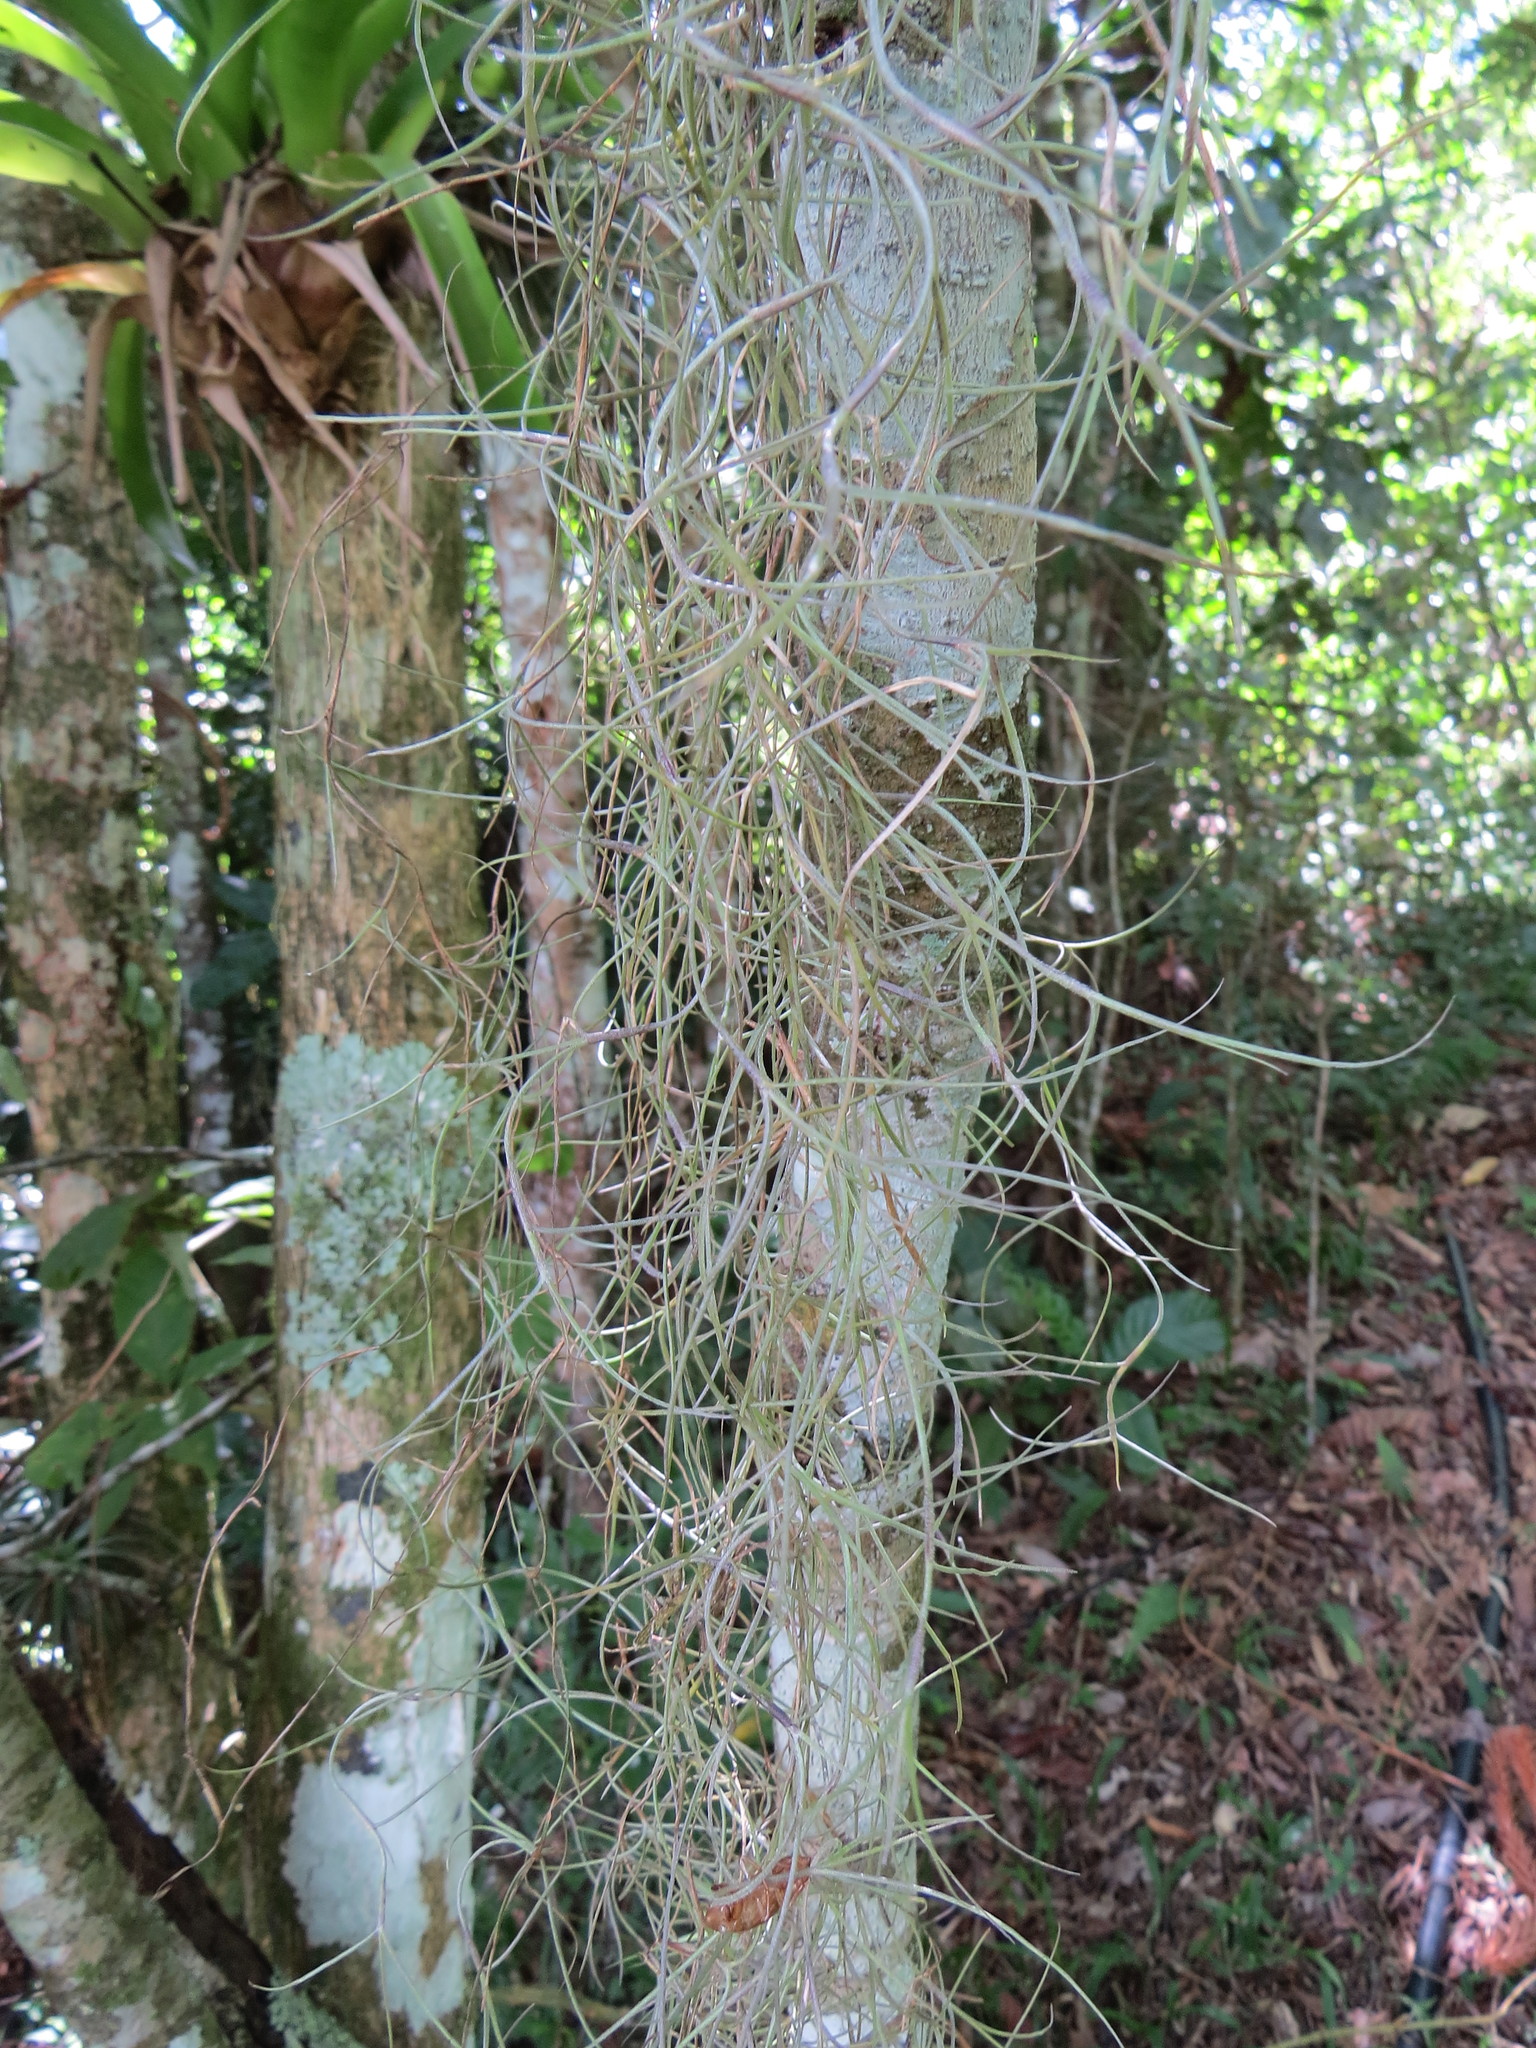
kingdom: Plantae
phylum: Tracheophyta
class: Liliopsida
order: Poales
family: Bromeliaceae
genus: Tillandsia
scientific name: Tillandsia usneoides
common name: Spanish moss
